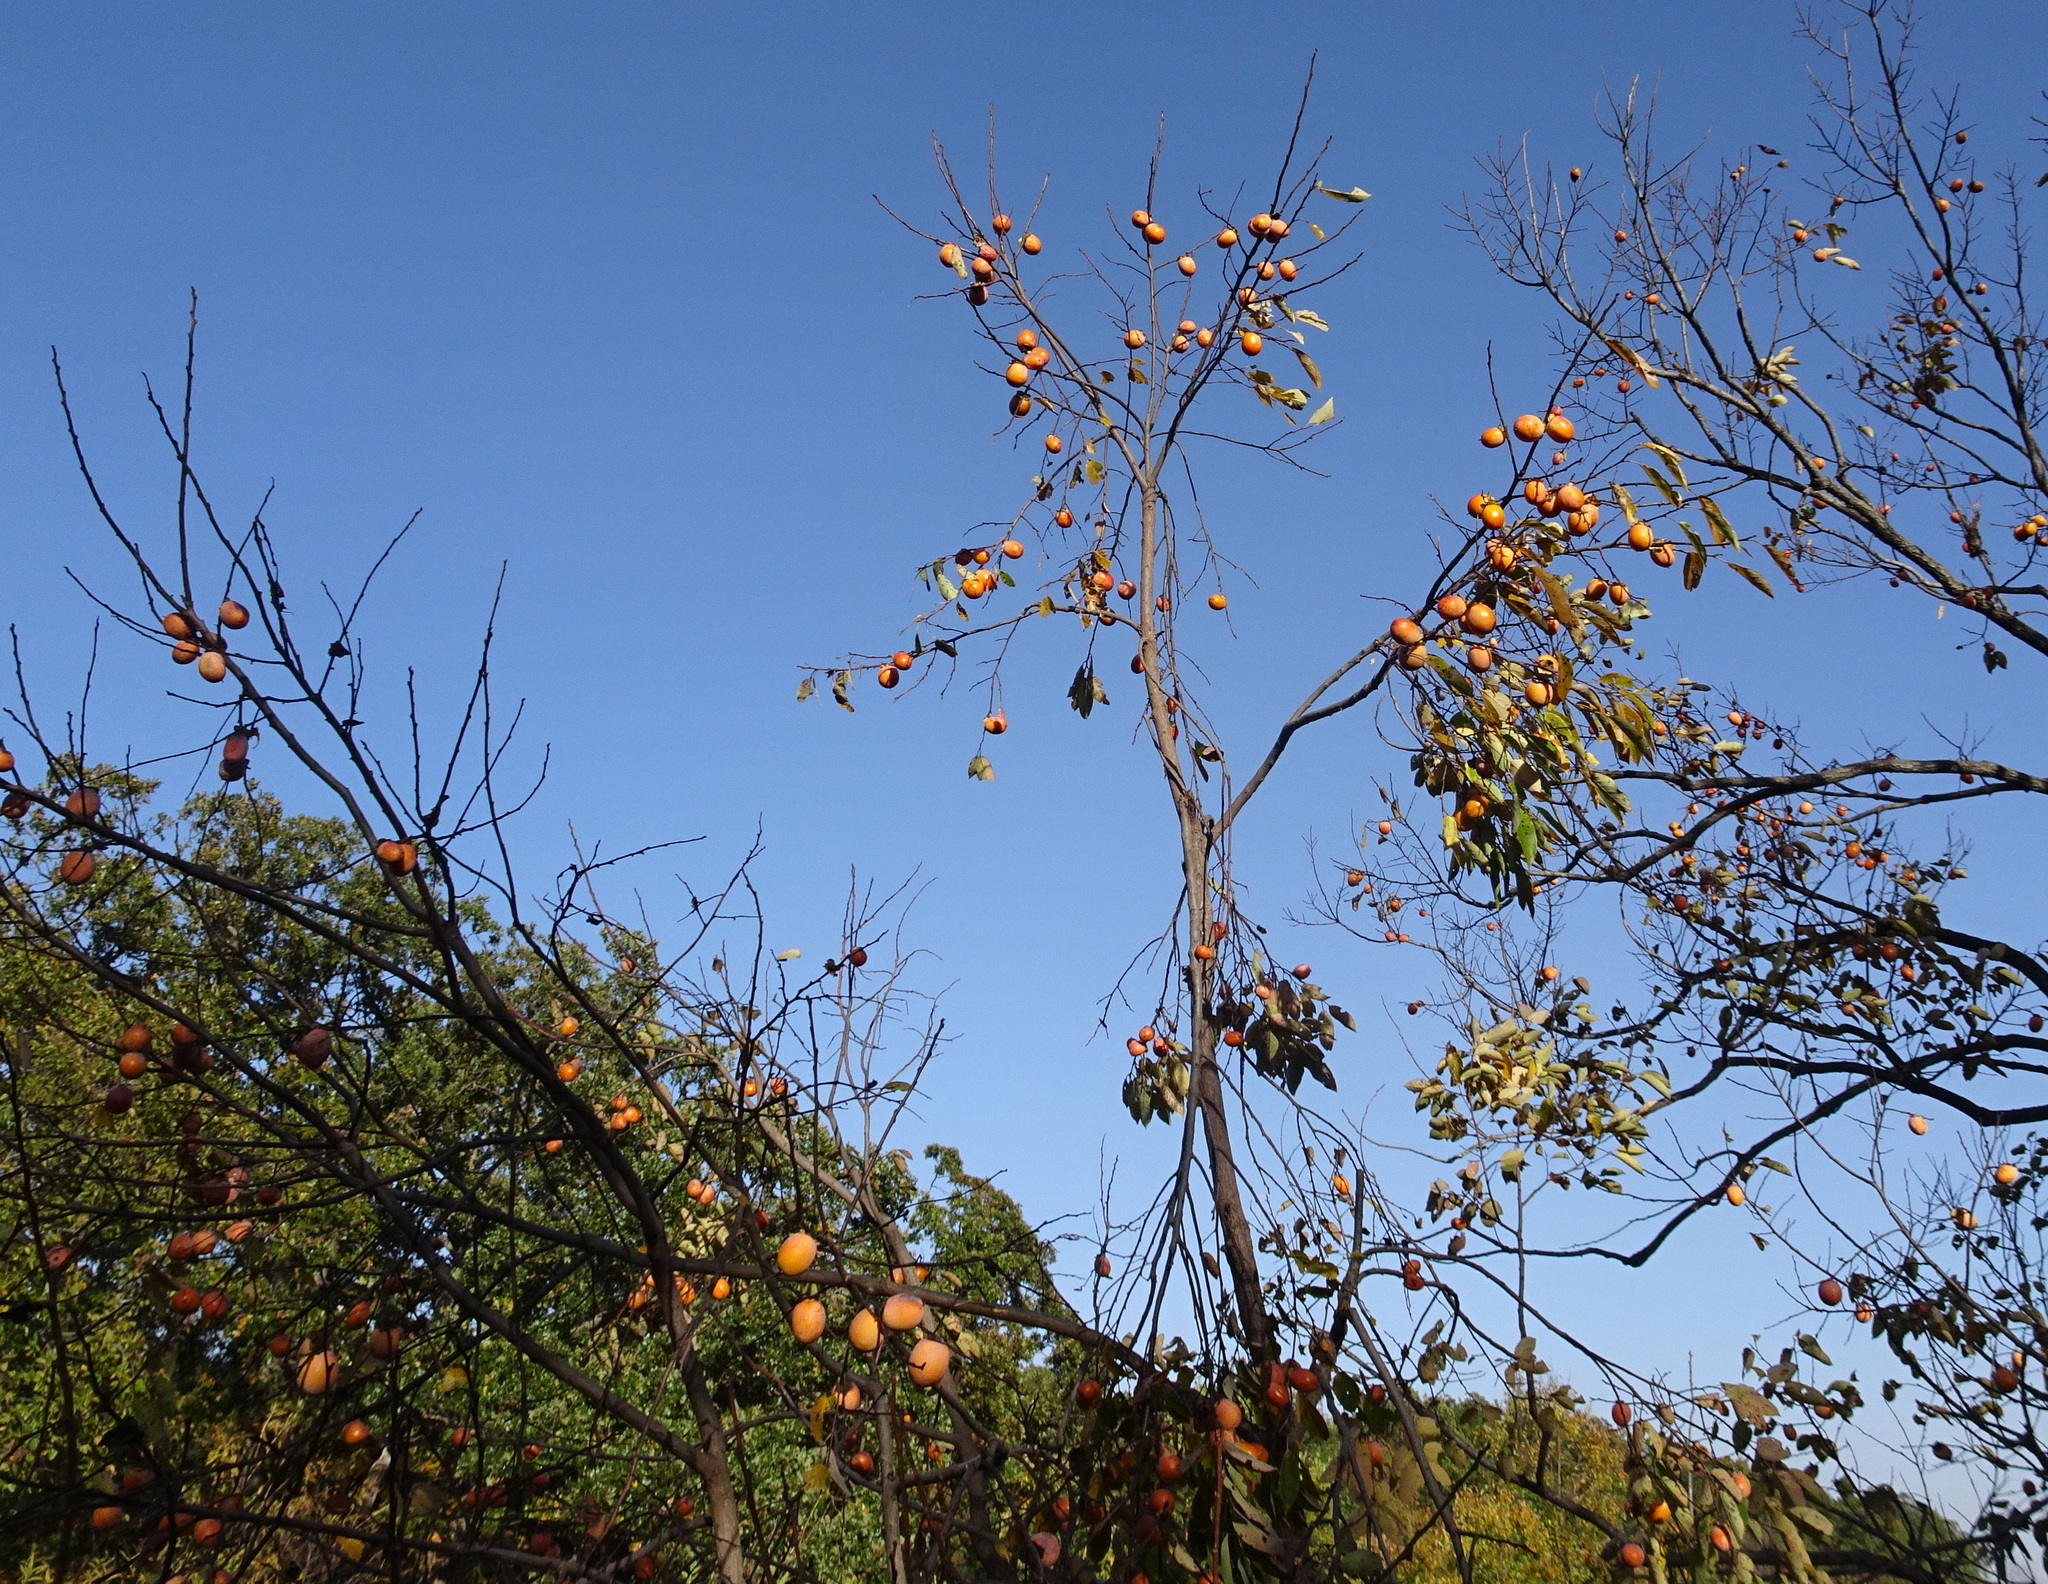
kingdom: Plantae
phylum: Tracheophyta
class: Magnoliopsida
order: Ericales
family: Ebenaceae
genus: Diospyros
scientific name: Diospyros virginiana
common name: Persimmon
